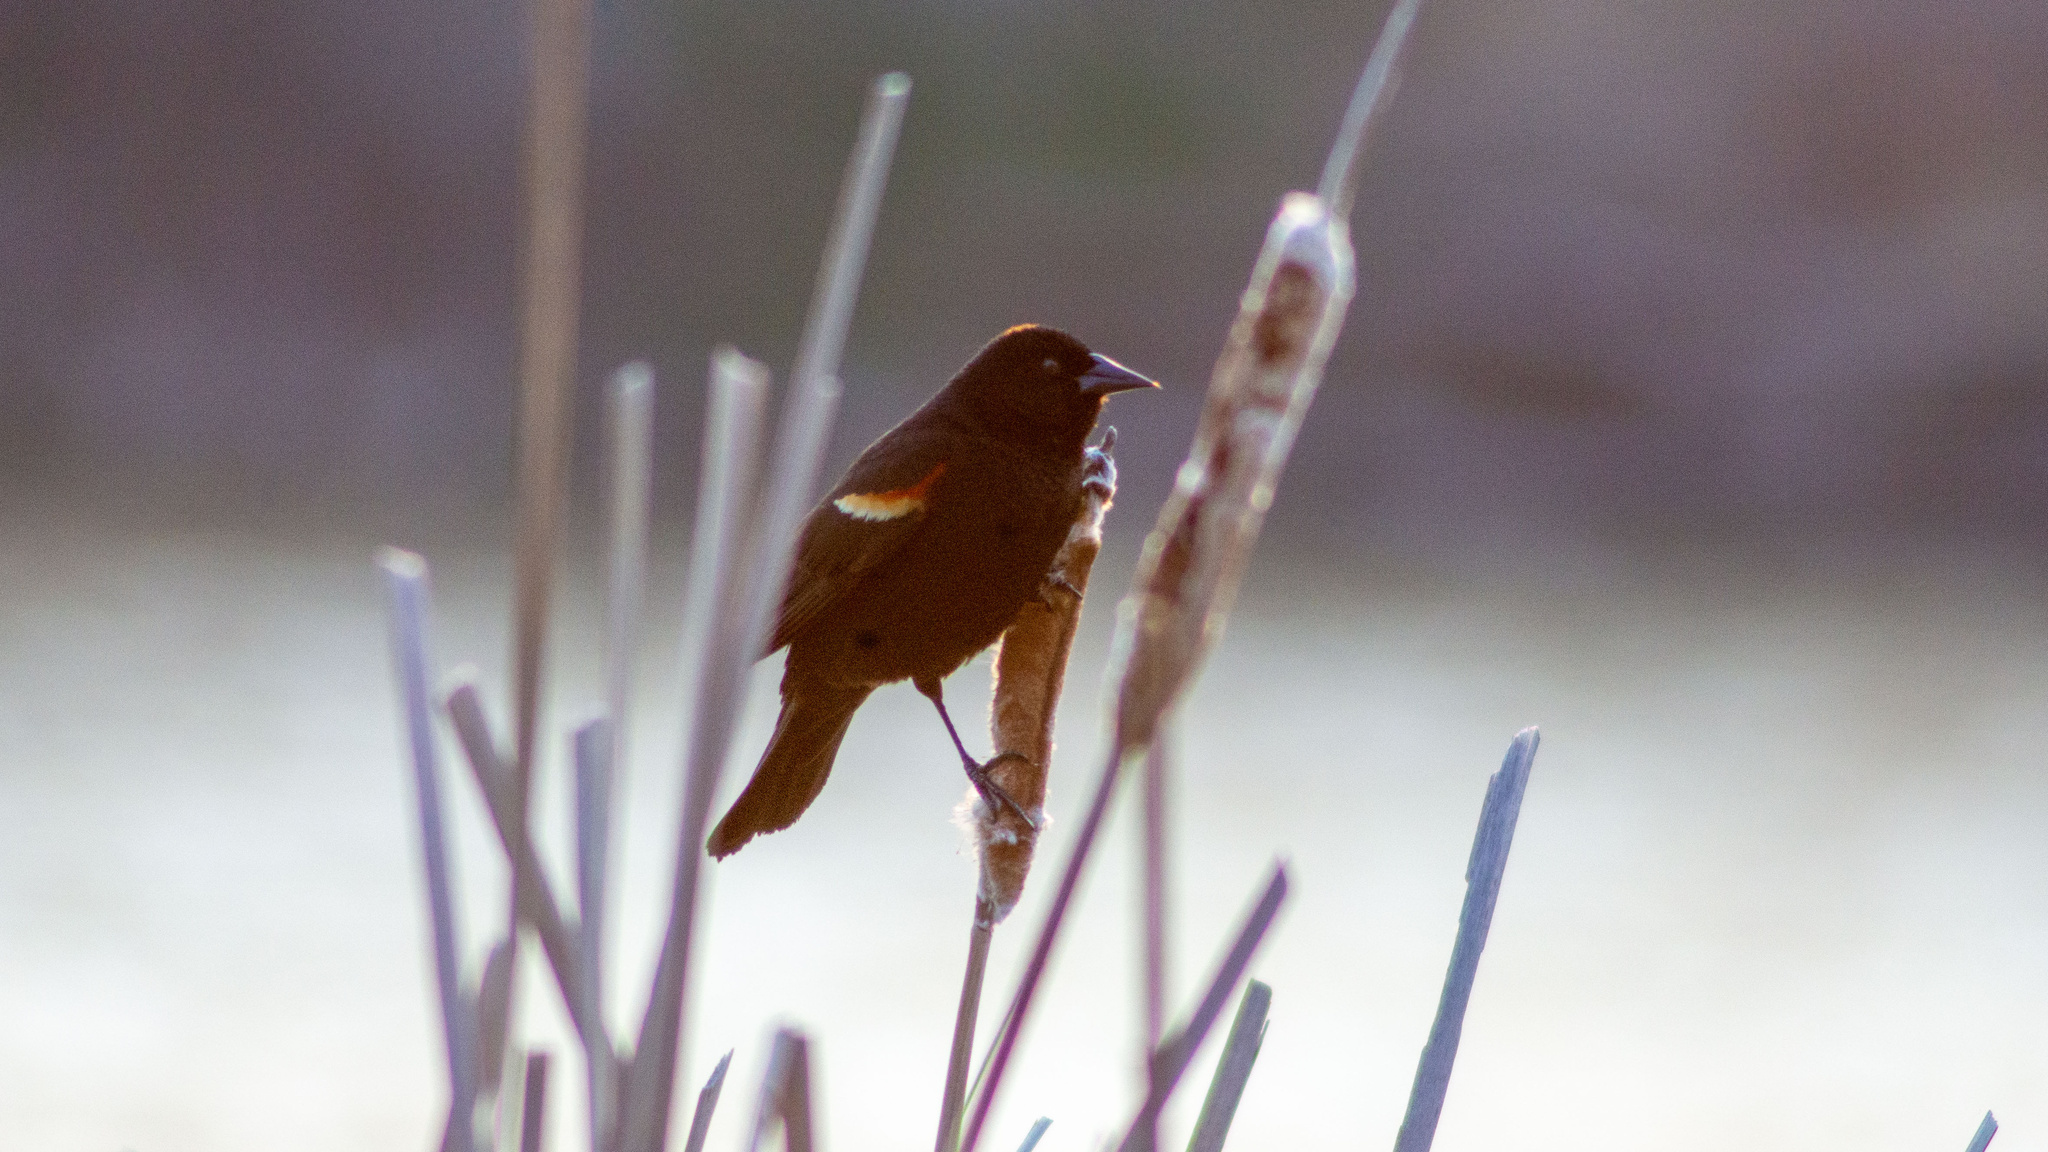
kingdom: Animalia
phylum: Chordata
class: Aves
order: Passeriformes
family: Icteridae
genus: Agelaius
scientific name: Agelaius phoeniceus
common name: Red-winged blackbird
